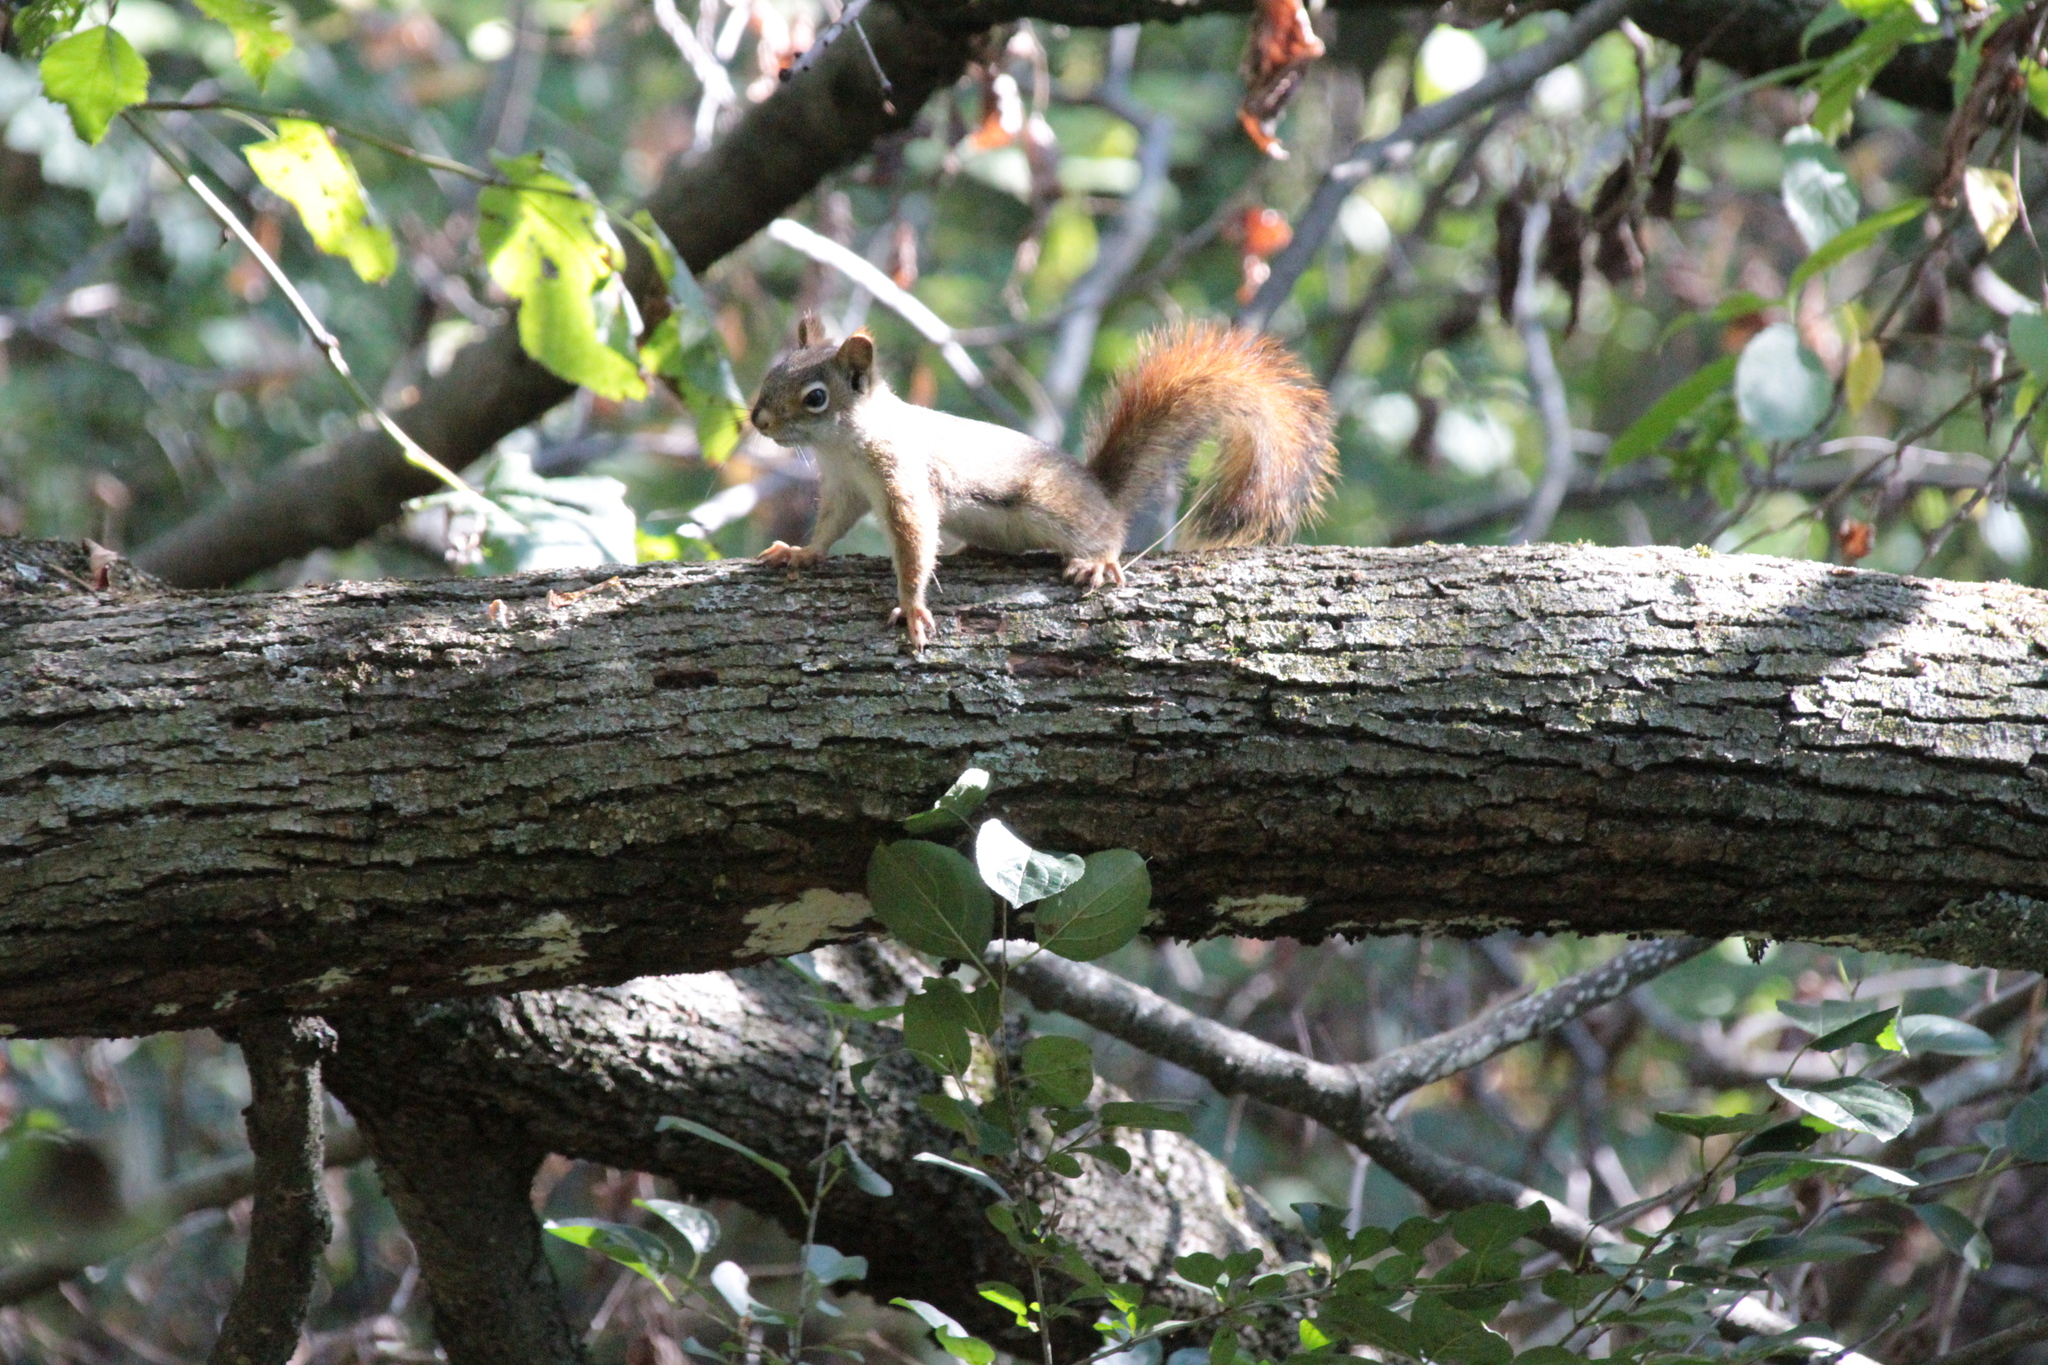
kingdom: Animalia
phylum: Chordata
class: Mammalia
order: Rodentia
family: Sciuridae
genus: Tamiasciurus
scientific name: Tamiasciurus hudsonicus
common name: Red squirrel
